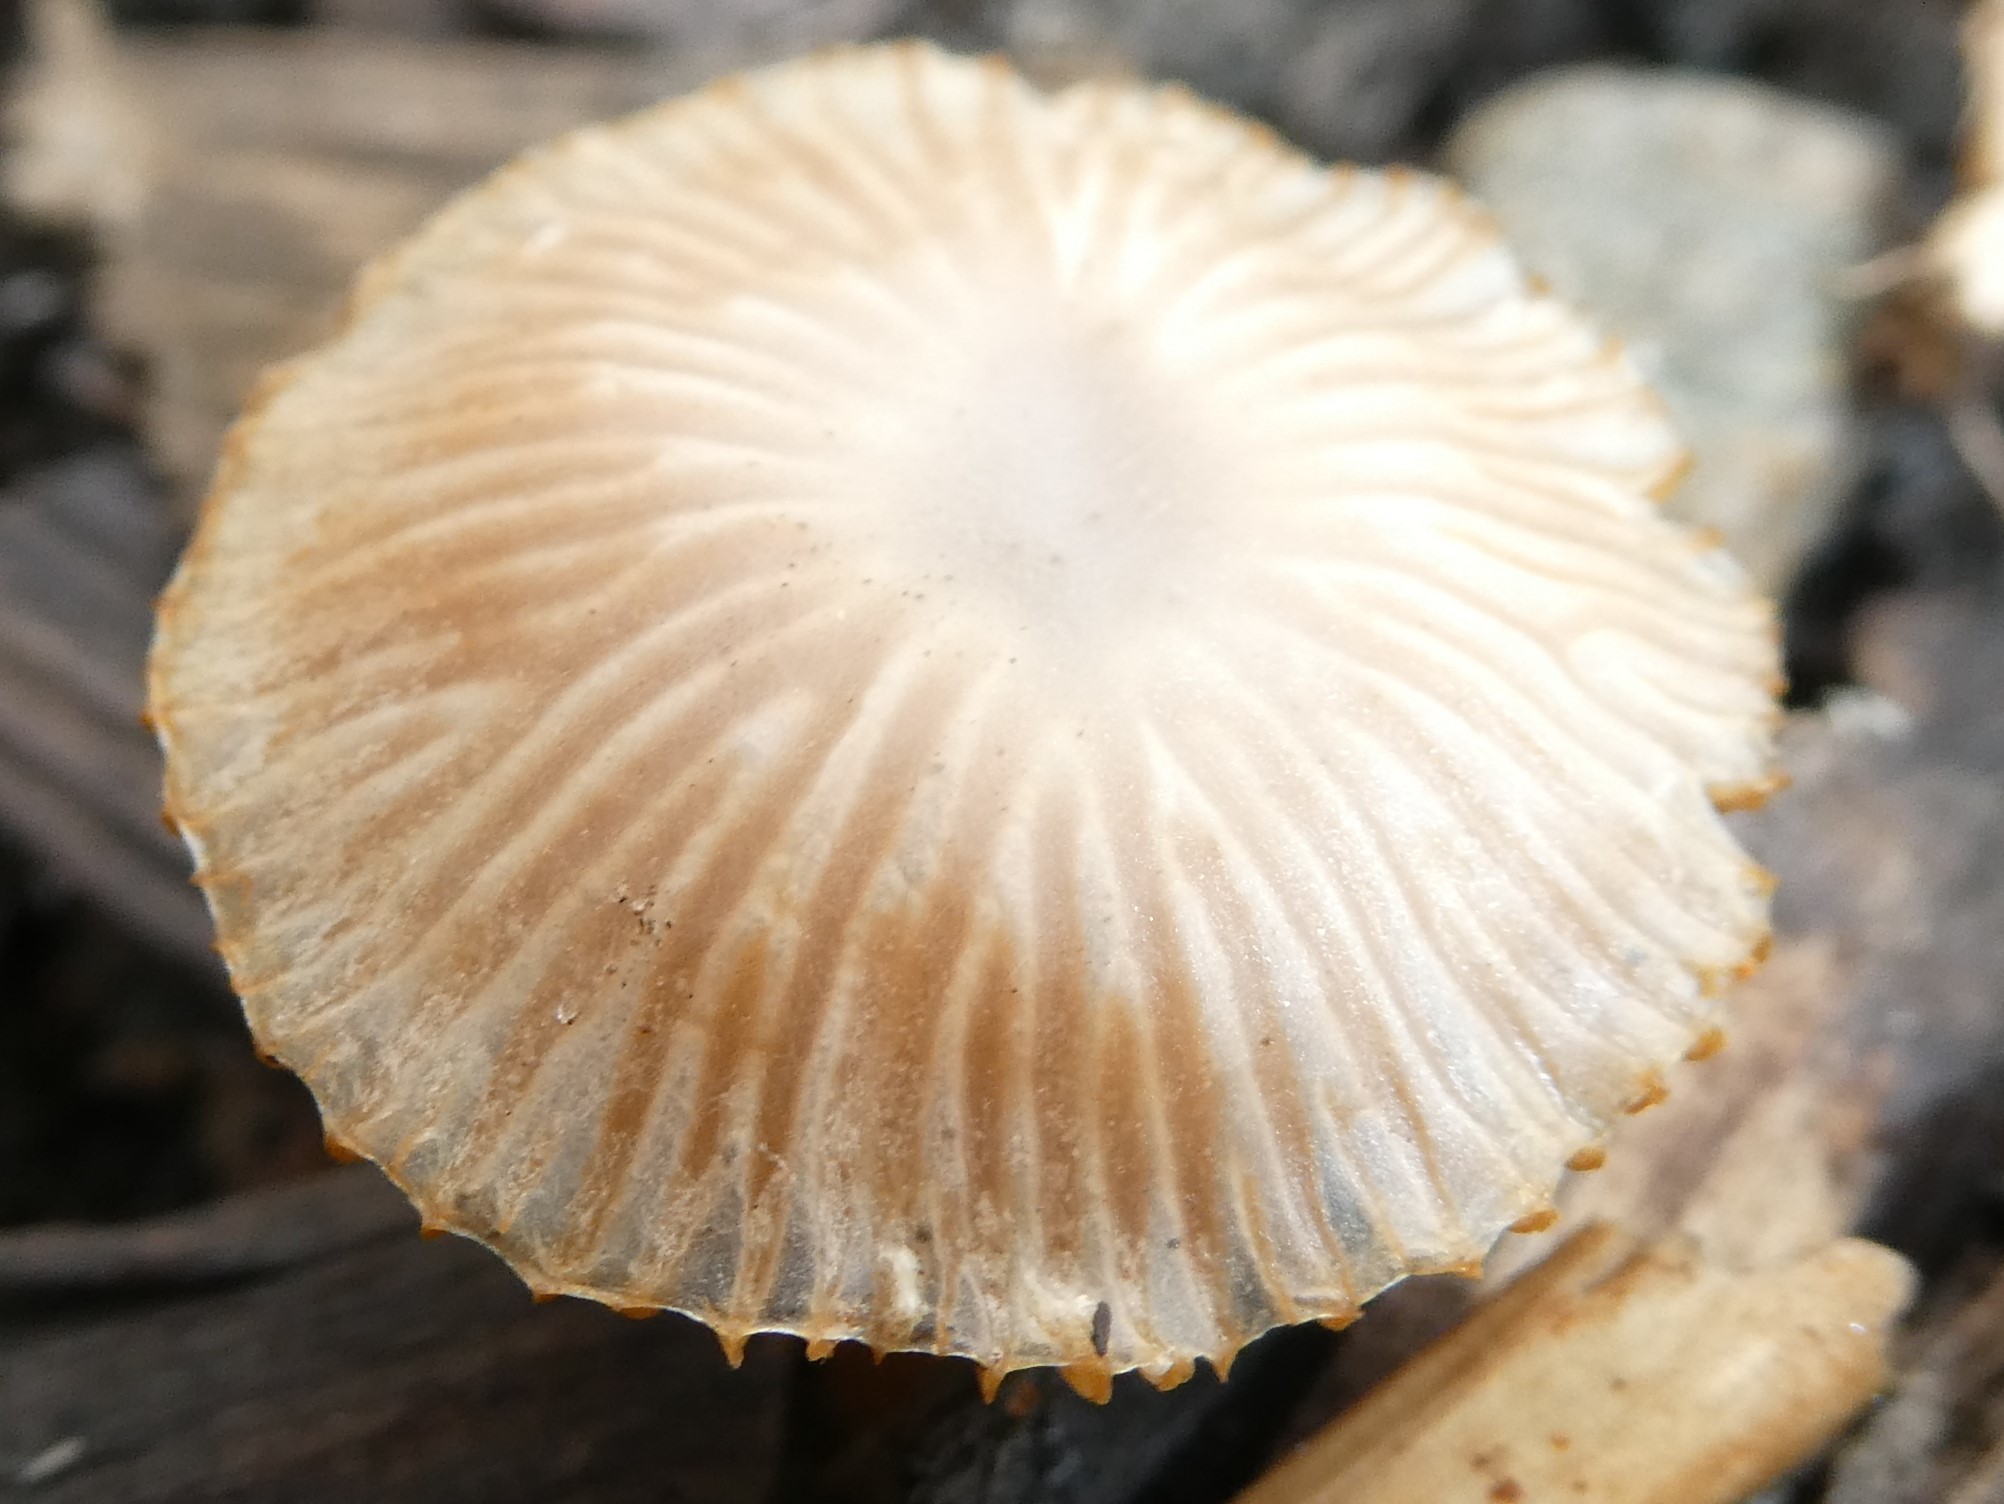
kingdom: Fungi
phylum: Basidiomycota
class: Agaricomycetes
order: Agaricales
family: Tubariaceae
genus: Tubaria
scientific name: Tubaria furfuracea
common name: Scurfy twiglet
